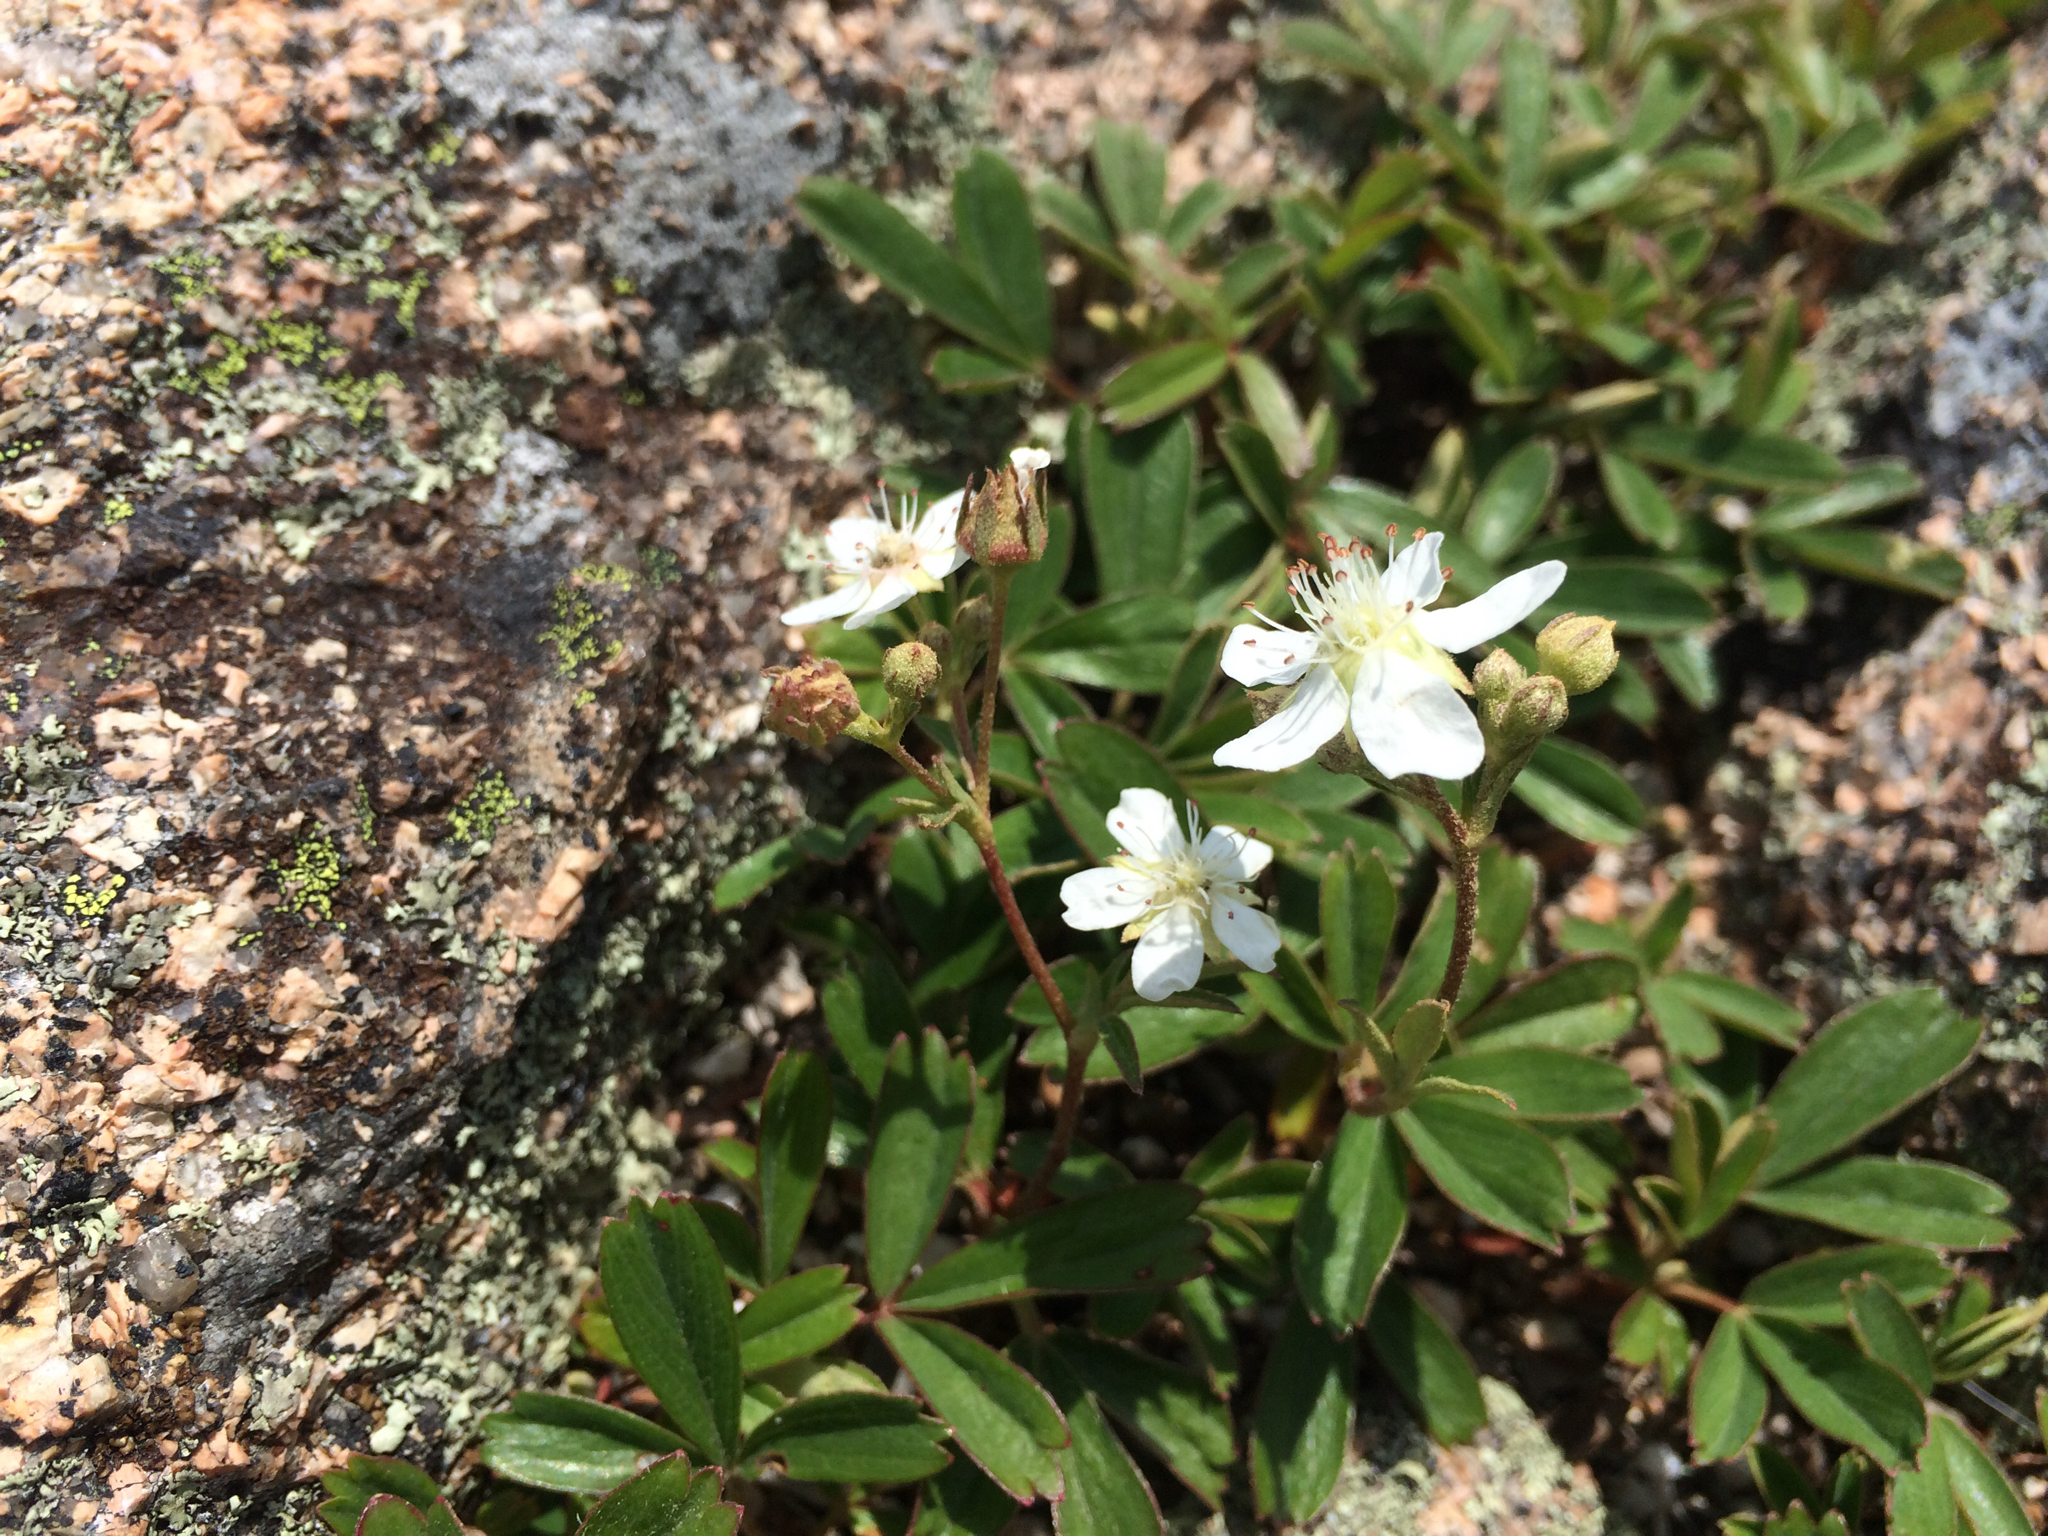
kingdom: Plantae
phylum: Tracheophyta
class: Magnoliopsida
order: Rosales
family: Rosaceae
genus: Sibbaldia
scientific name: Sibbaldia tridentata
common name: Three-toothed cinquefoil
